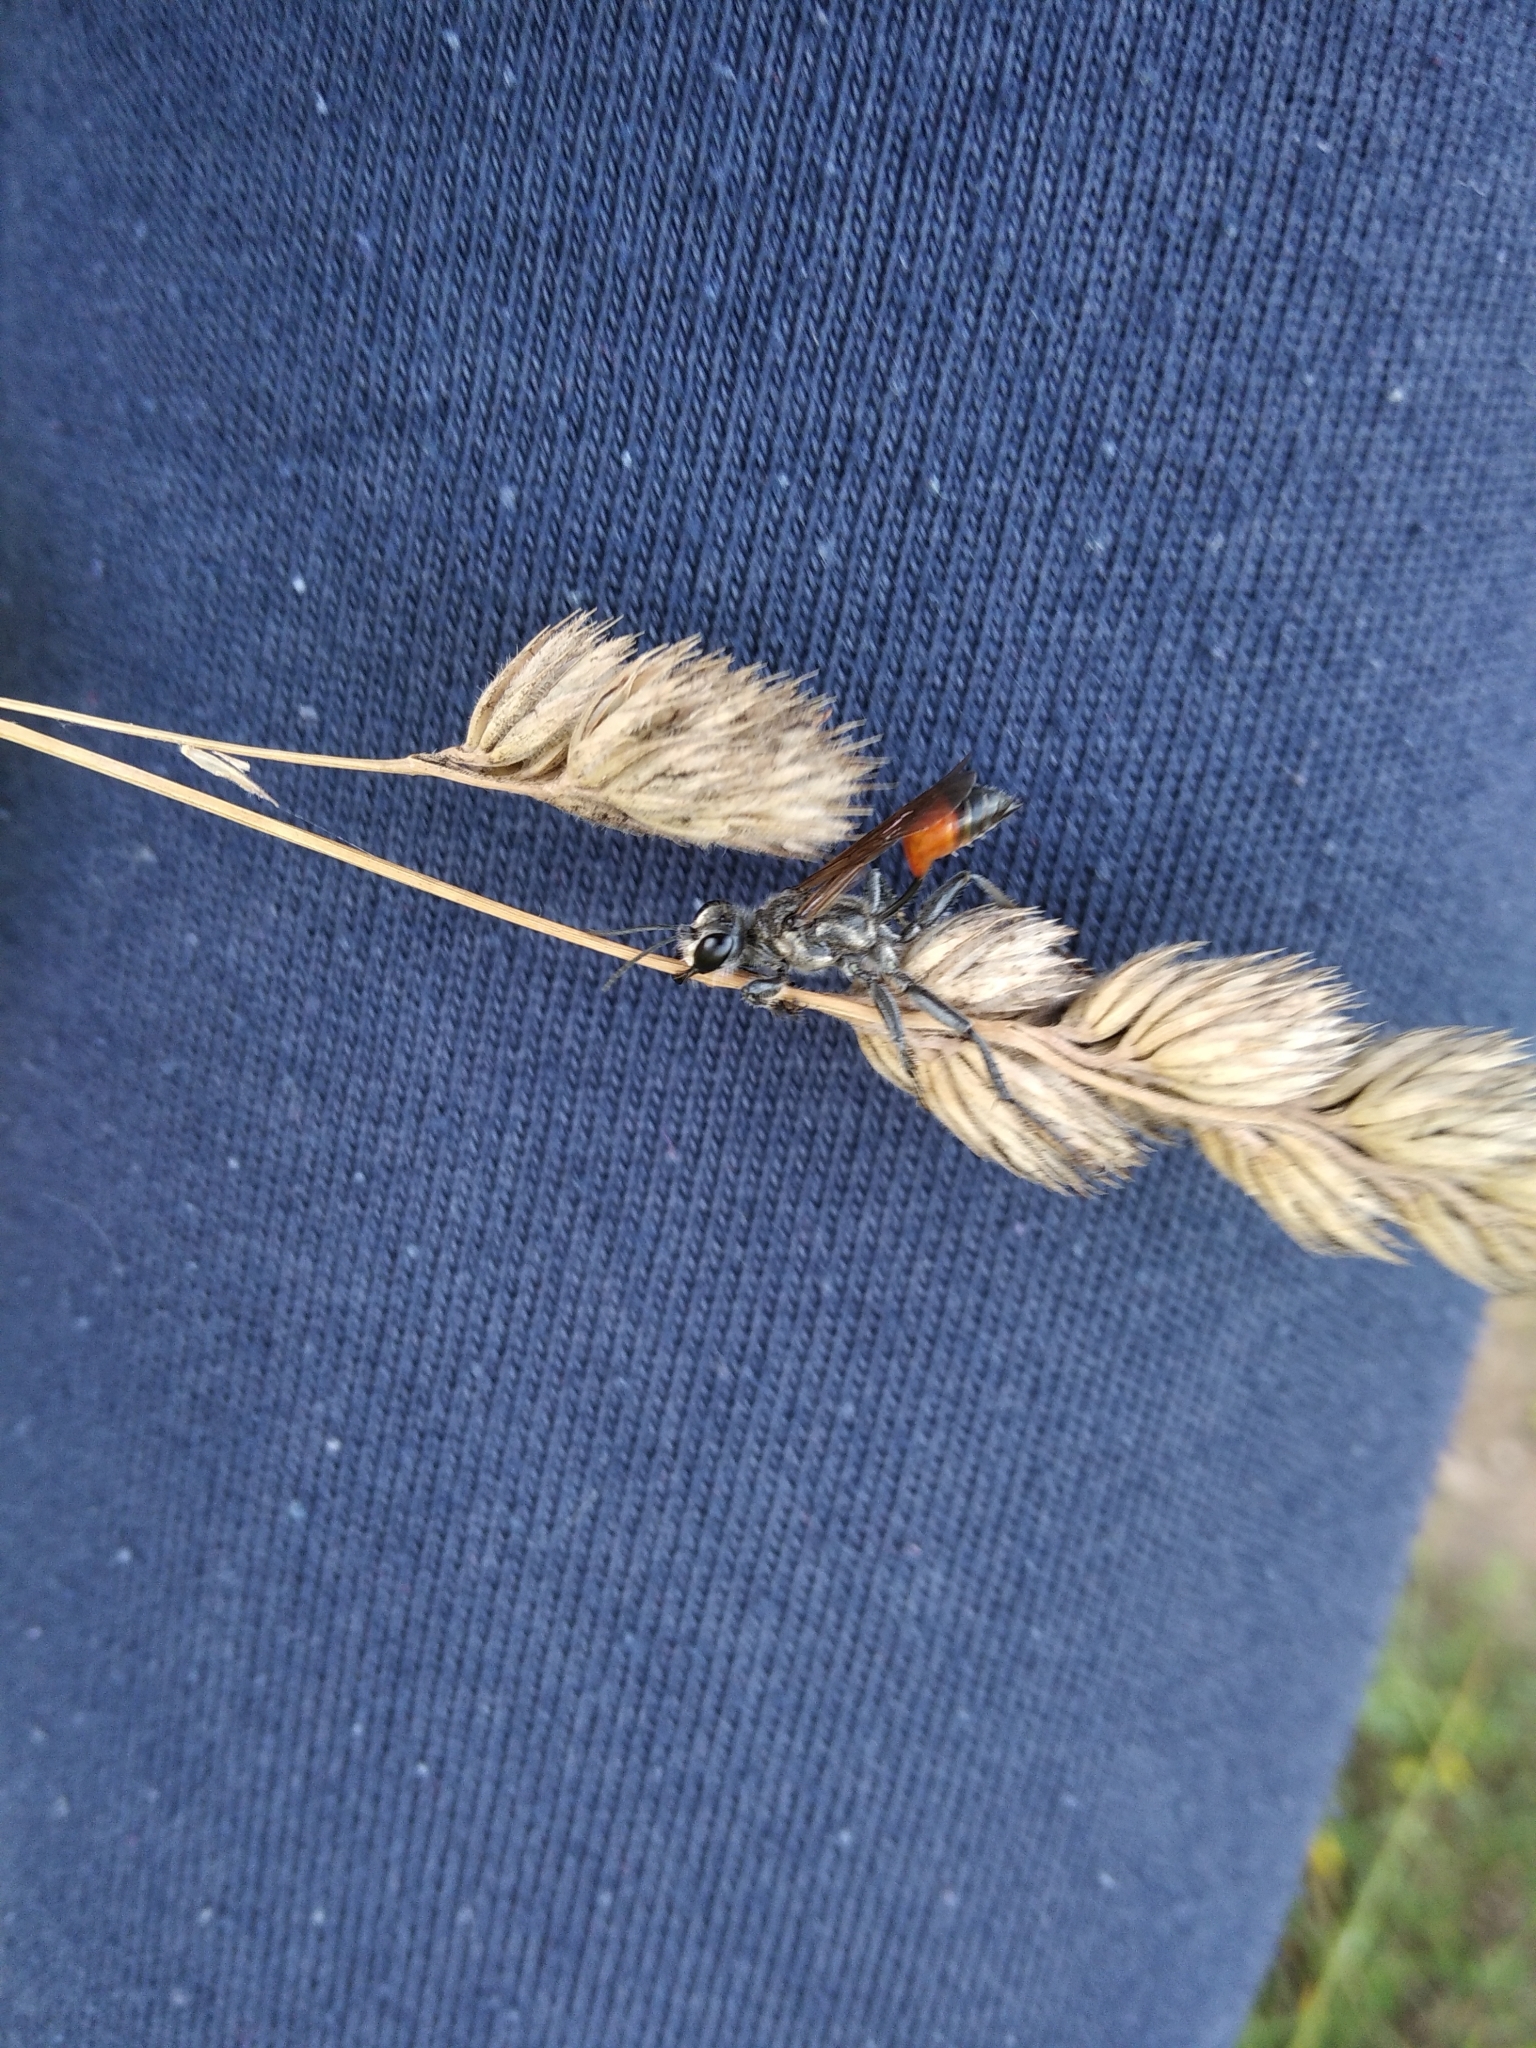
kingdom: Animalia
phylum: Arthropoda
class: Insecta
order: Hymenoptera
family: Sphecidae
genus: Prionyx
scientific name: Prionyx
